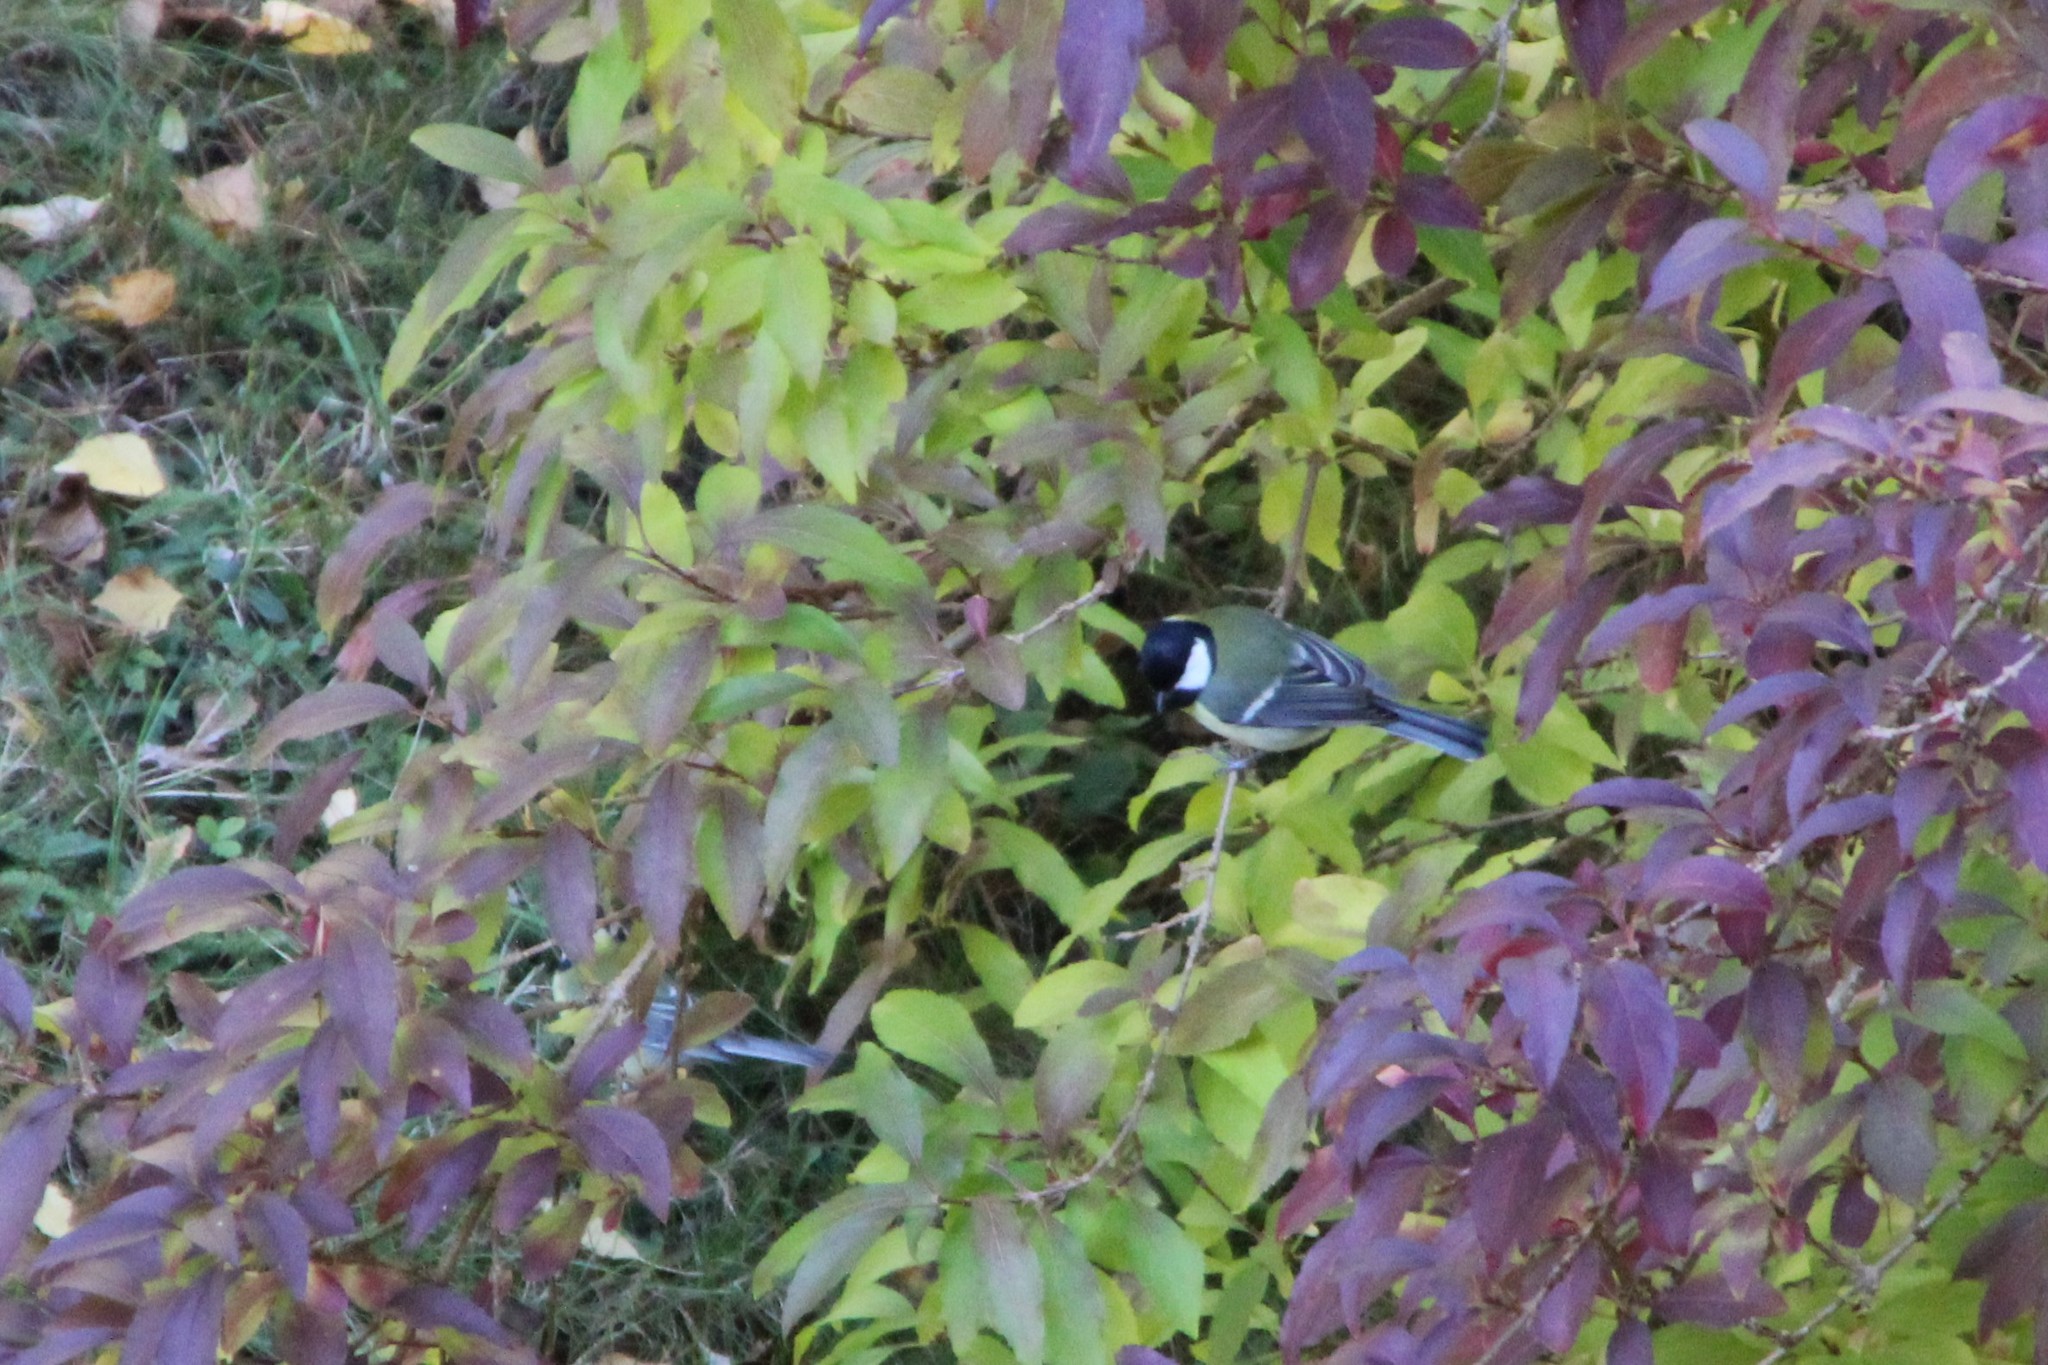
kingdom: Animalia
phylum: Chordata
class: Aves
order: Passeriformes
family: Paridae
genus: Parus
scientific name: Parus major
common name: Great tit
